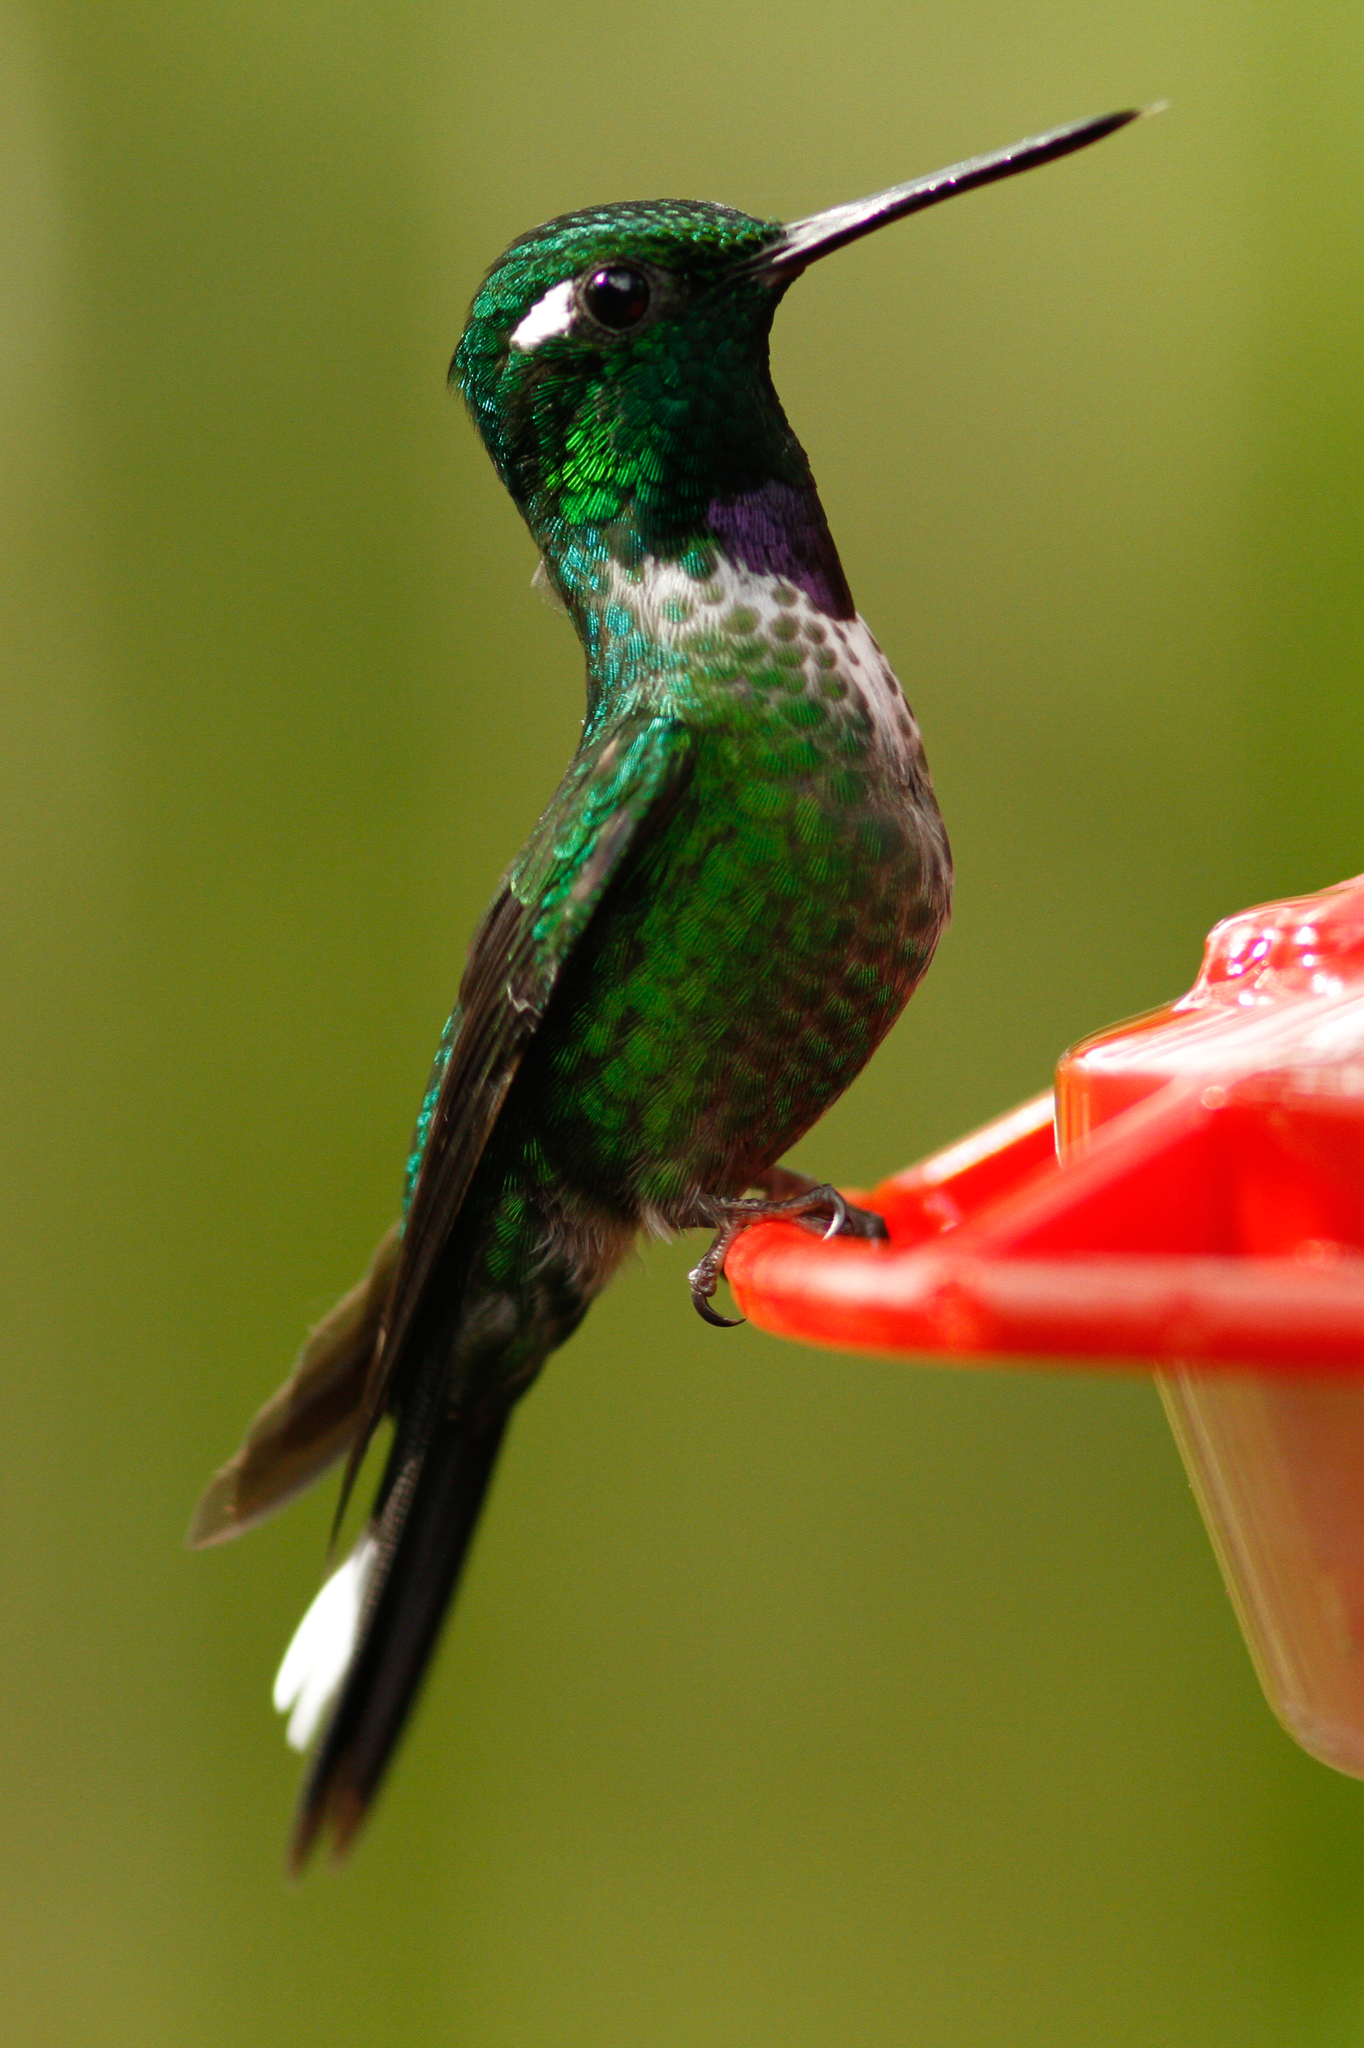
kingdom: Animalia
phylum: Chordata
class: Aves
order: Apodiformes
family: Trochilidae
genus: Urosticte
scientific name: Urosticte benjamini
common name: Purple-bibbed whitetip
